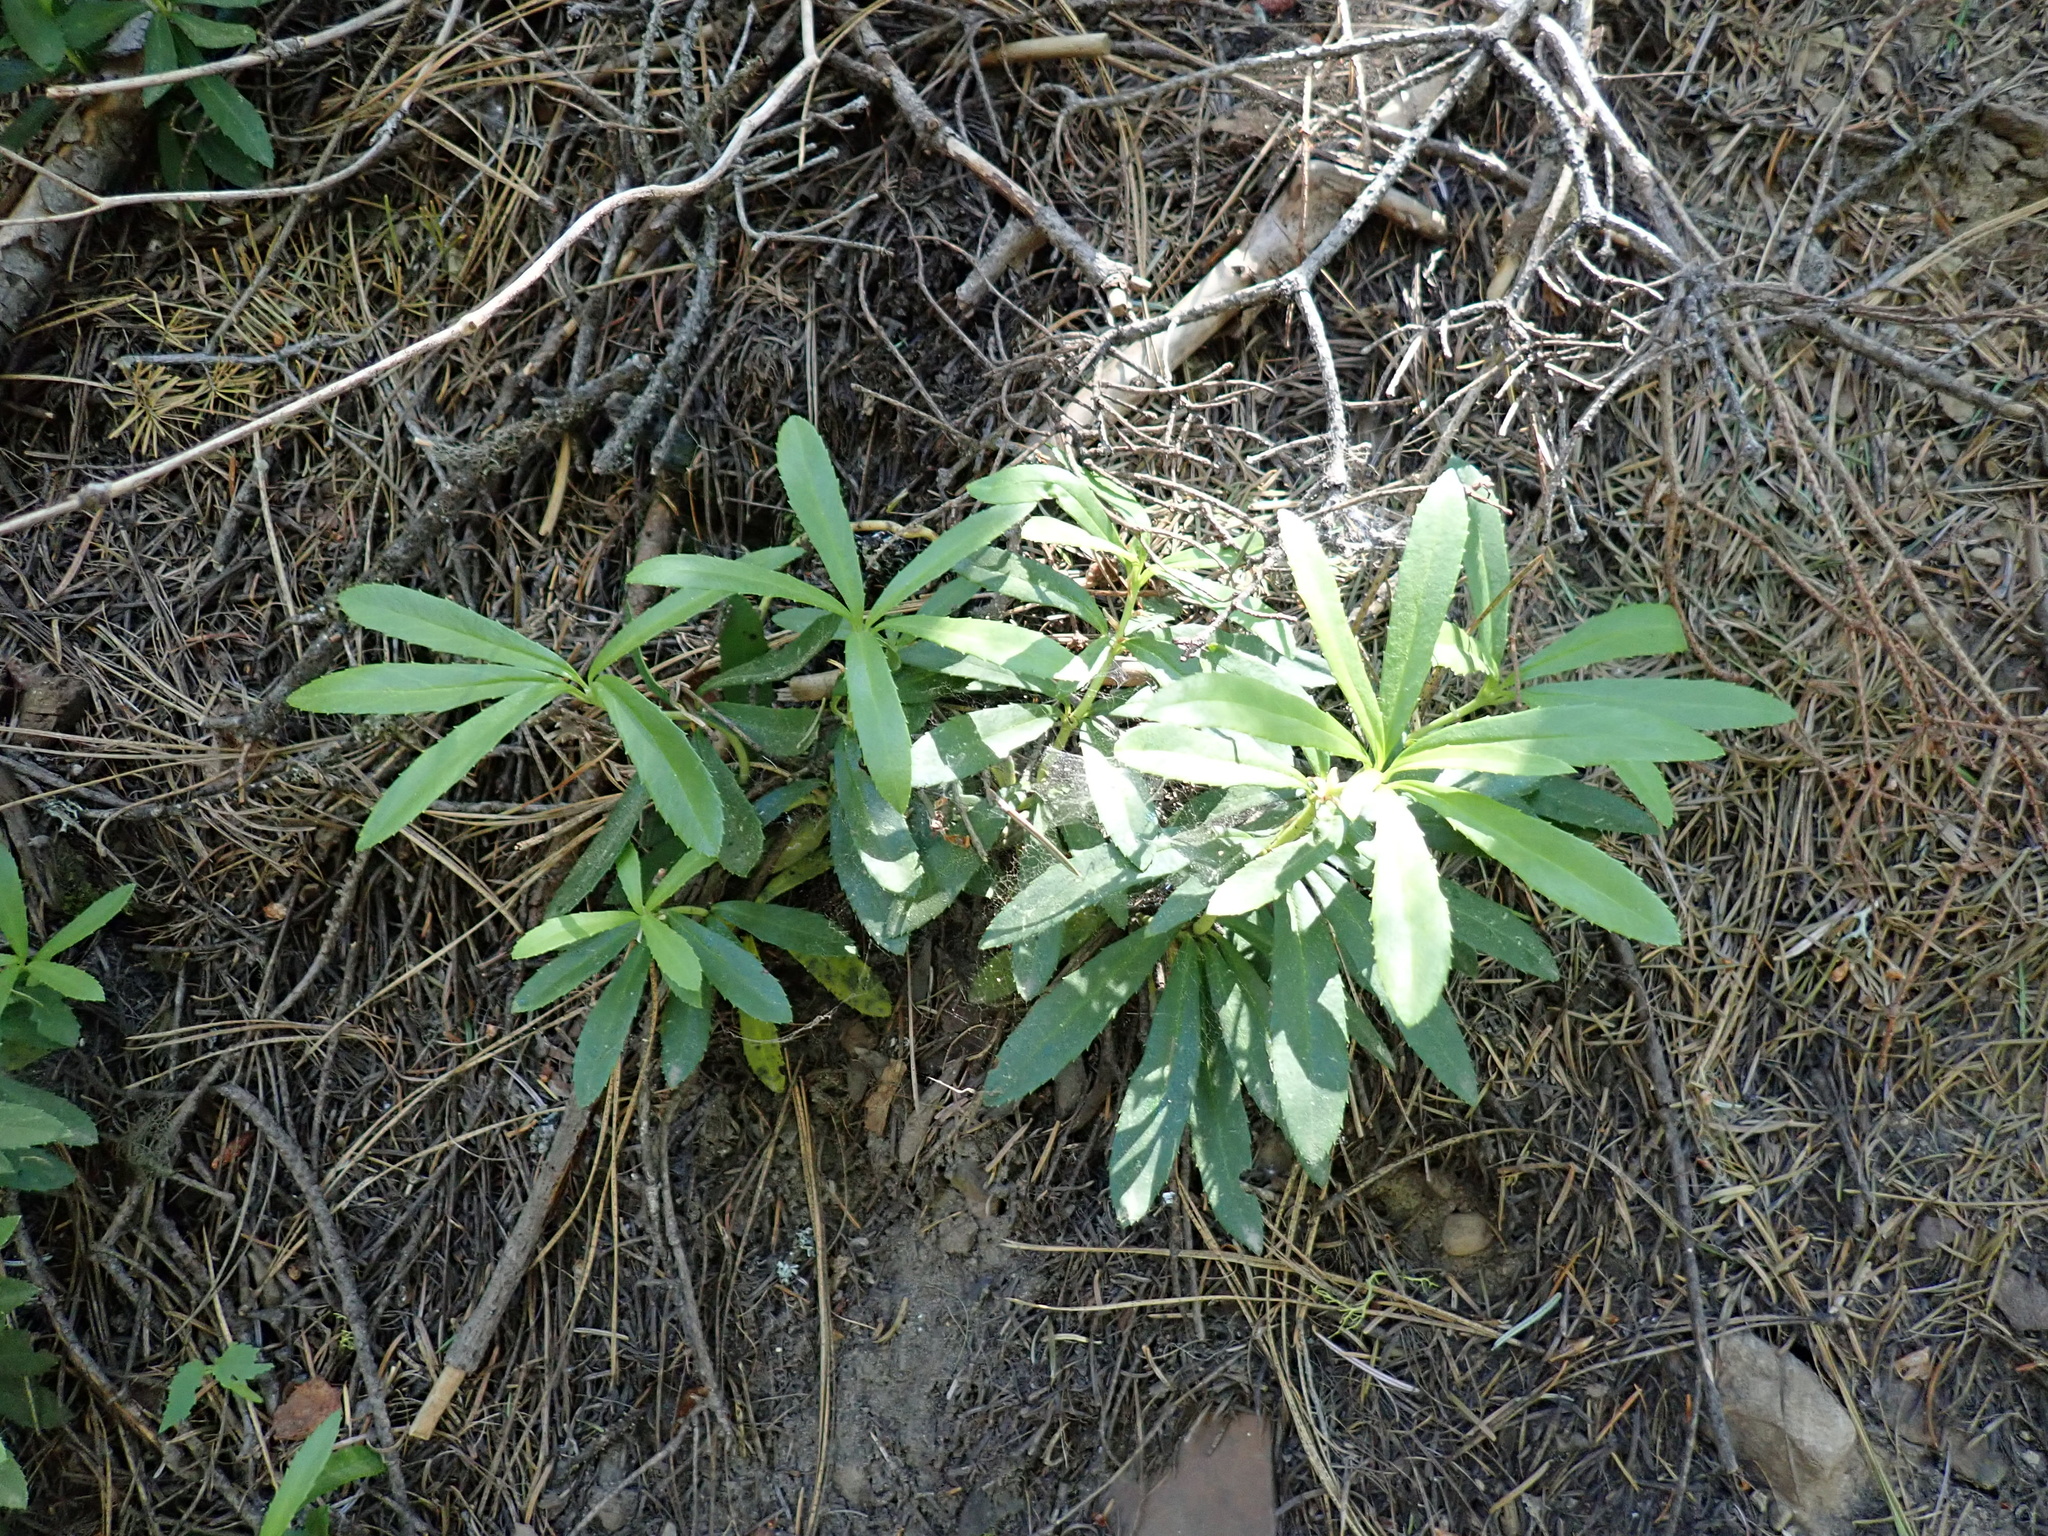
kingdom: Plantae
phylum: Tracheophyta
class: Magnoliopsida
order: Ericales
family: Ericaceae
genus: Chimaphila
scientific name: Chimaphila umbellata
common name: Pipsissewa
